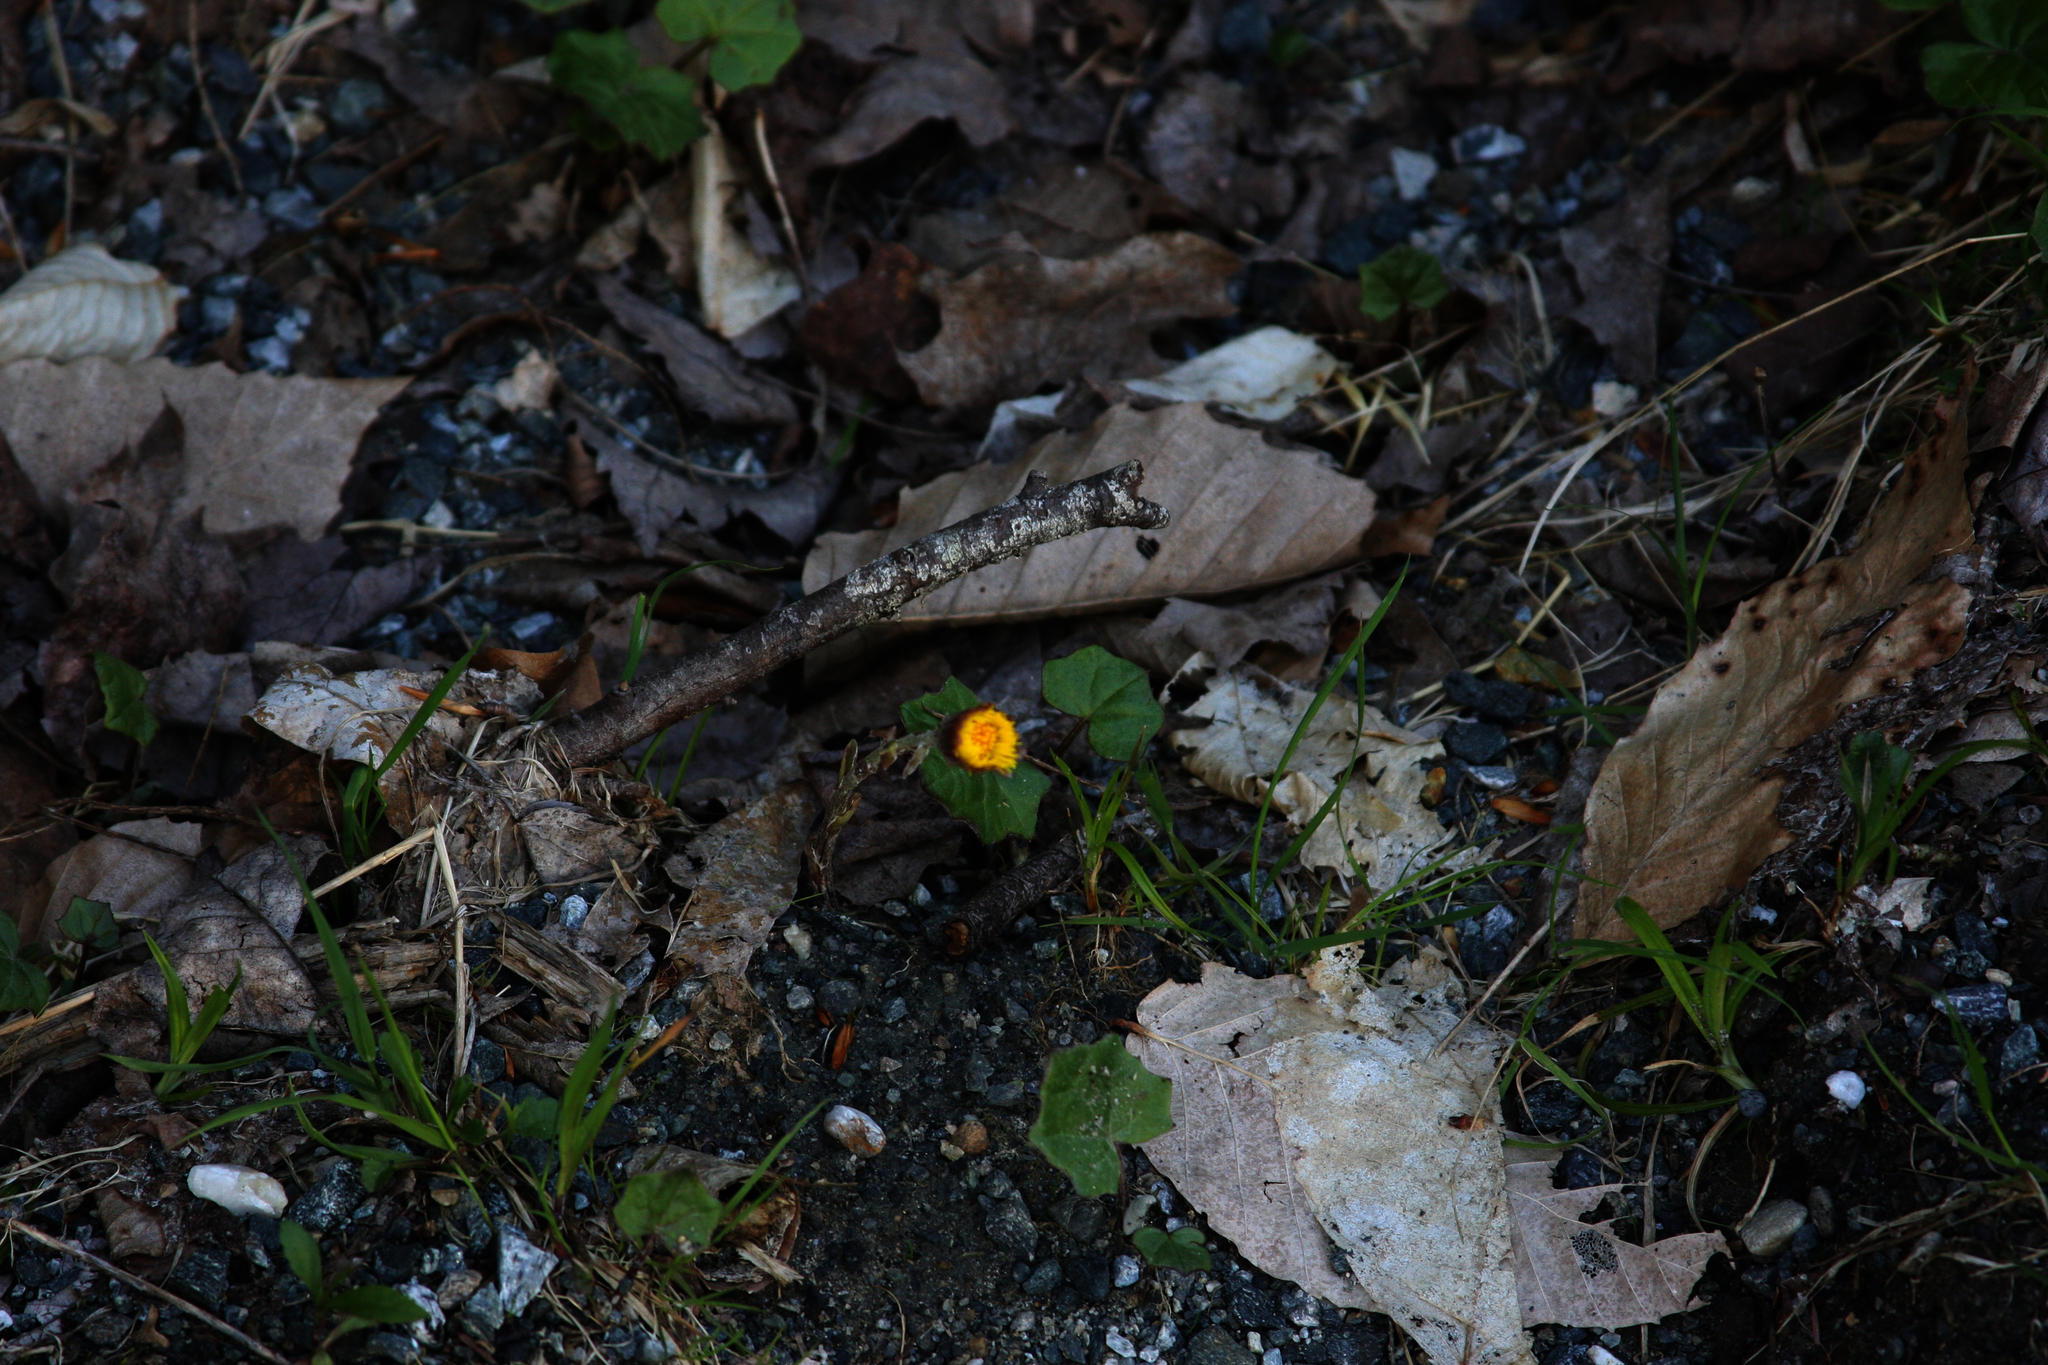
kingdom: Plantae
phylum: Tracheophyta
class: Magnoliopsida
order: Asterales
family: Asteraceae
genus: Tussilago
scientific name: Tussilago farfara
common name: Coltsfoot
